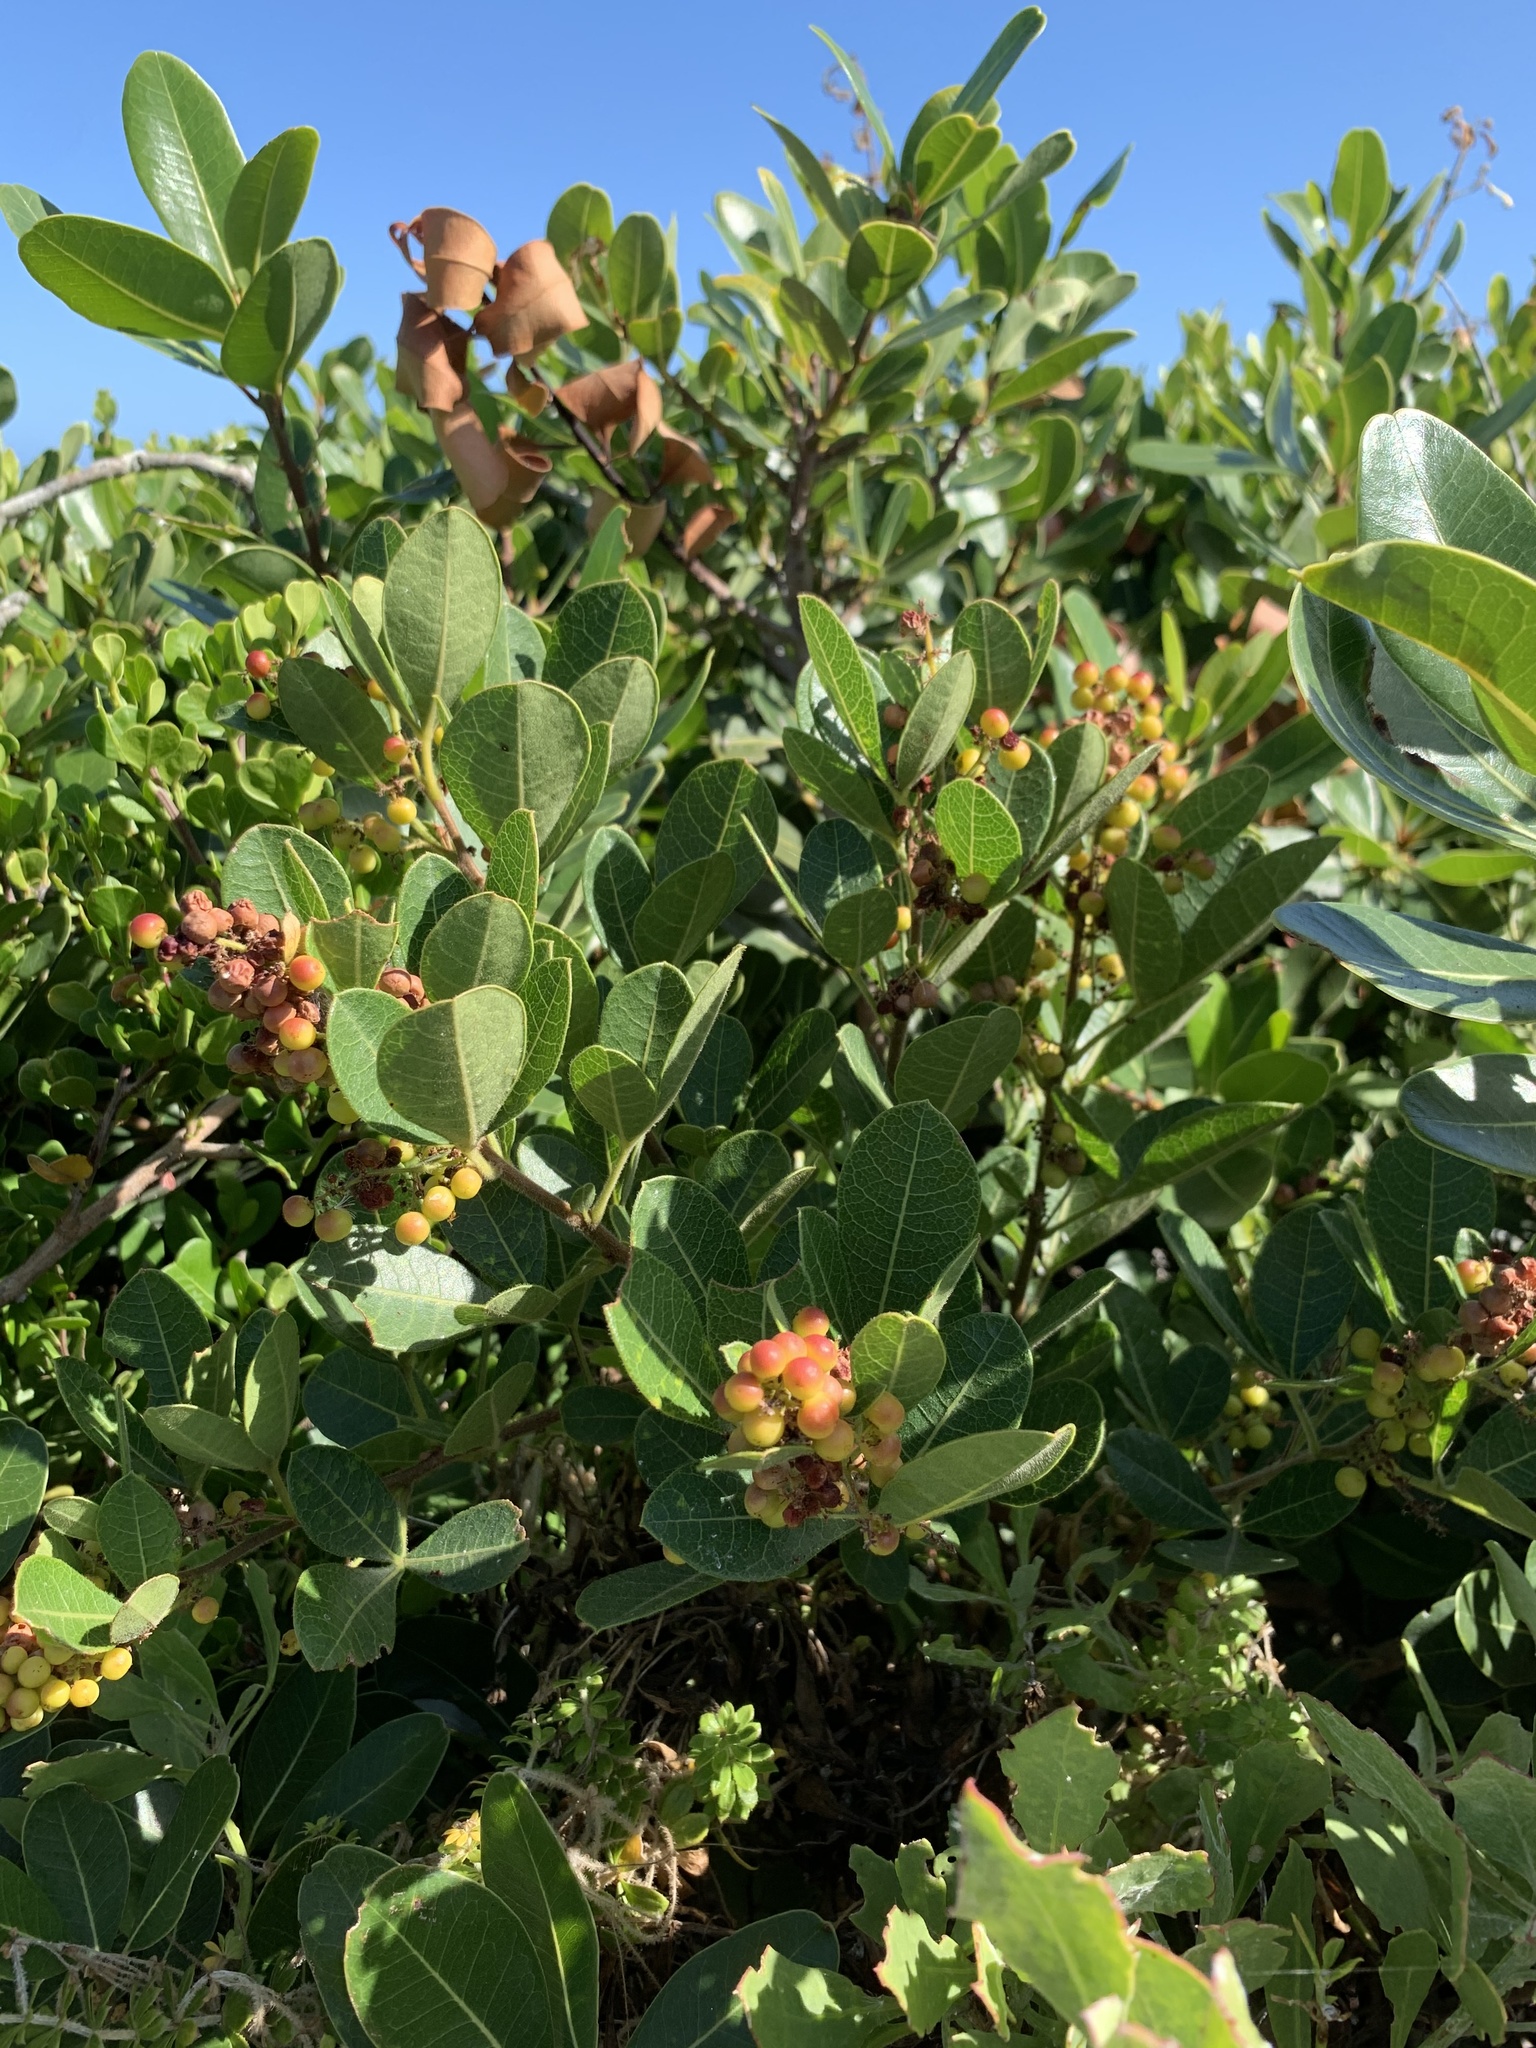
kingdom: Plantae
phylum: Tracheophyta
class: Magnoliopsida
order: Sapindales
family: Anacardiaceae
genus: Searsia
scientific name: Searsia laevigata
